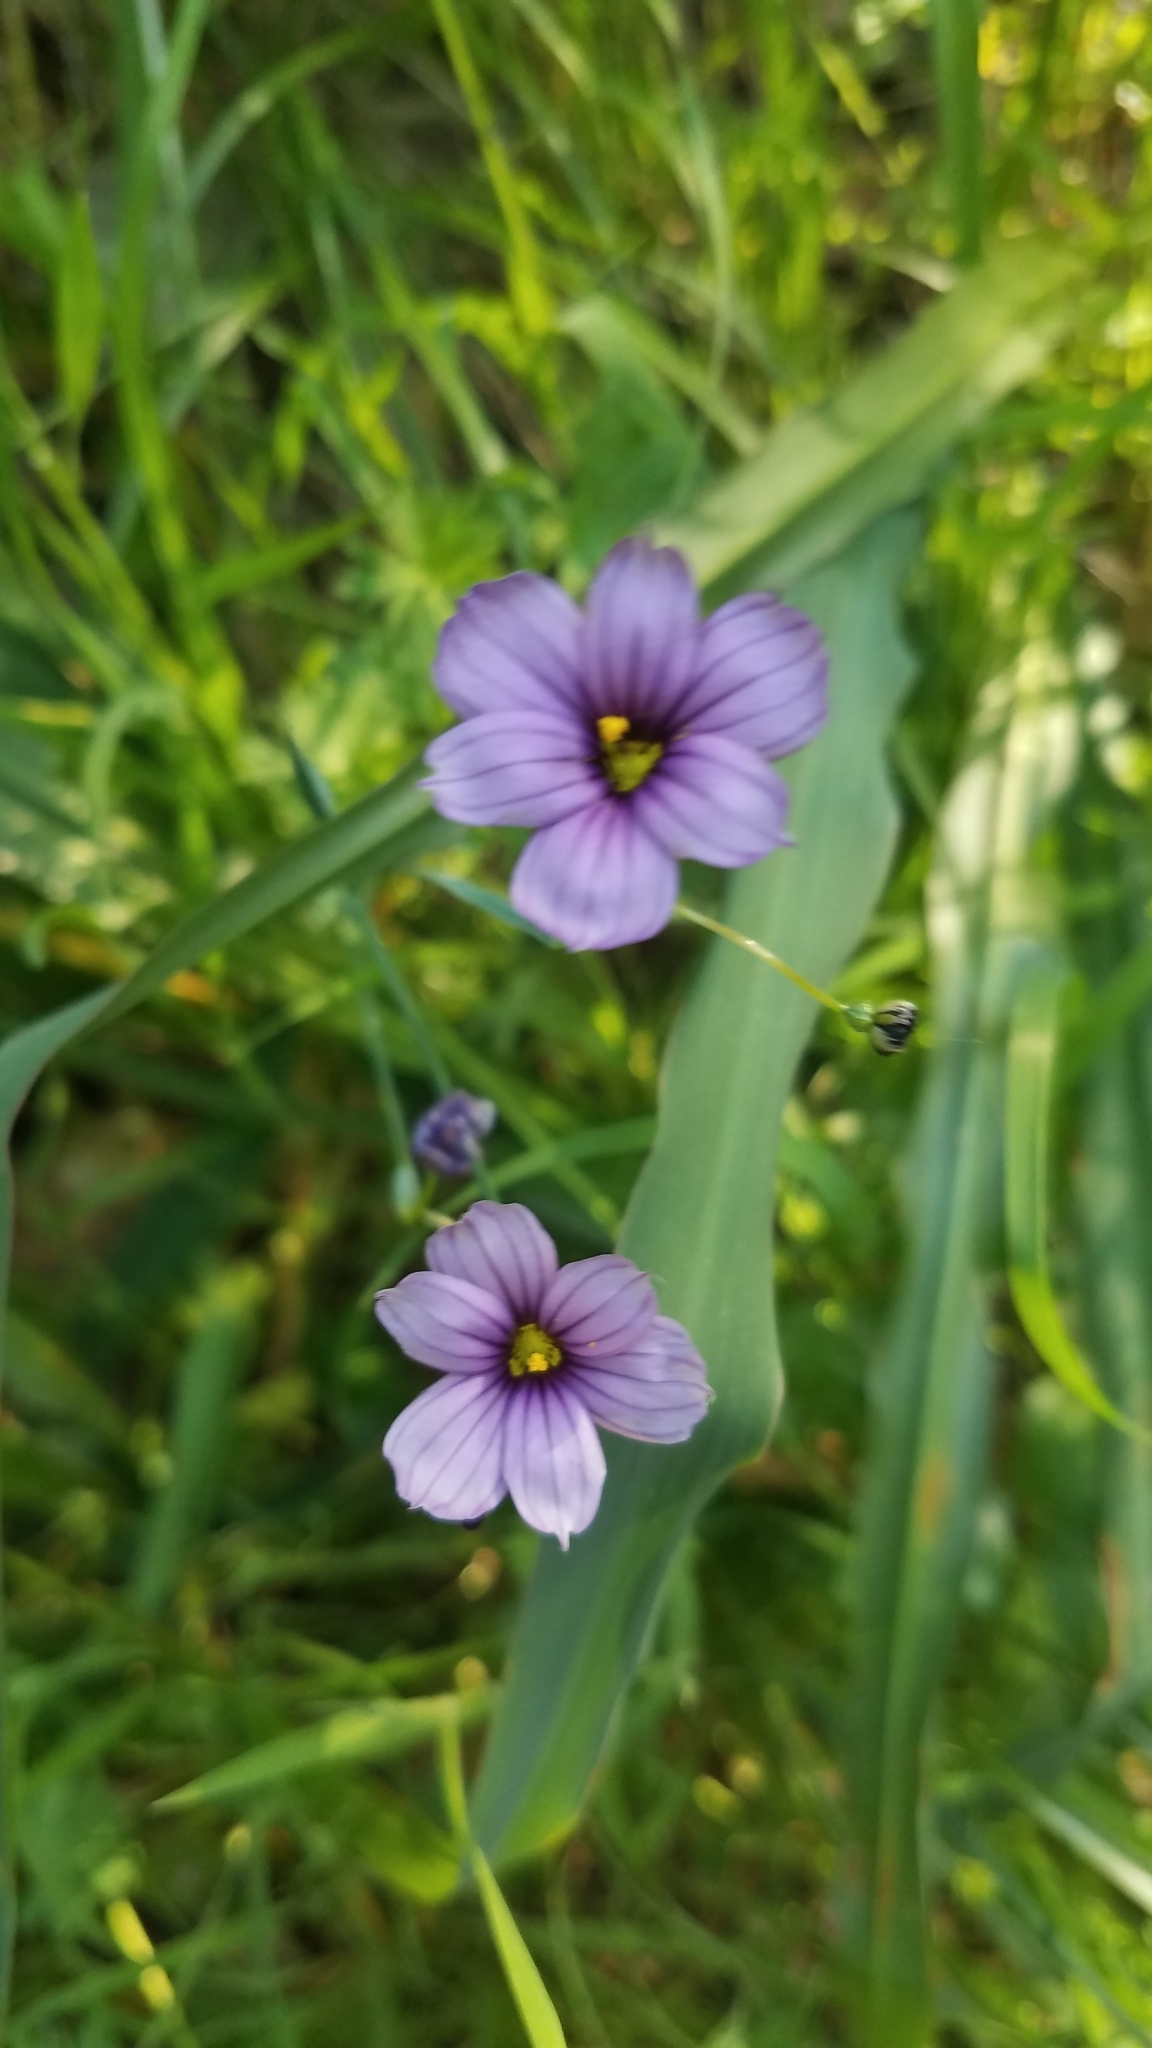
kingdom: Plantae
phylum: Tracheophyta
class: Liliopsida
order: Asparagales
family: Iridaceae
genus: Sisyrinchium
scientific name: Sisyrinchium bellum
